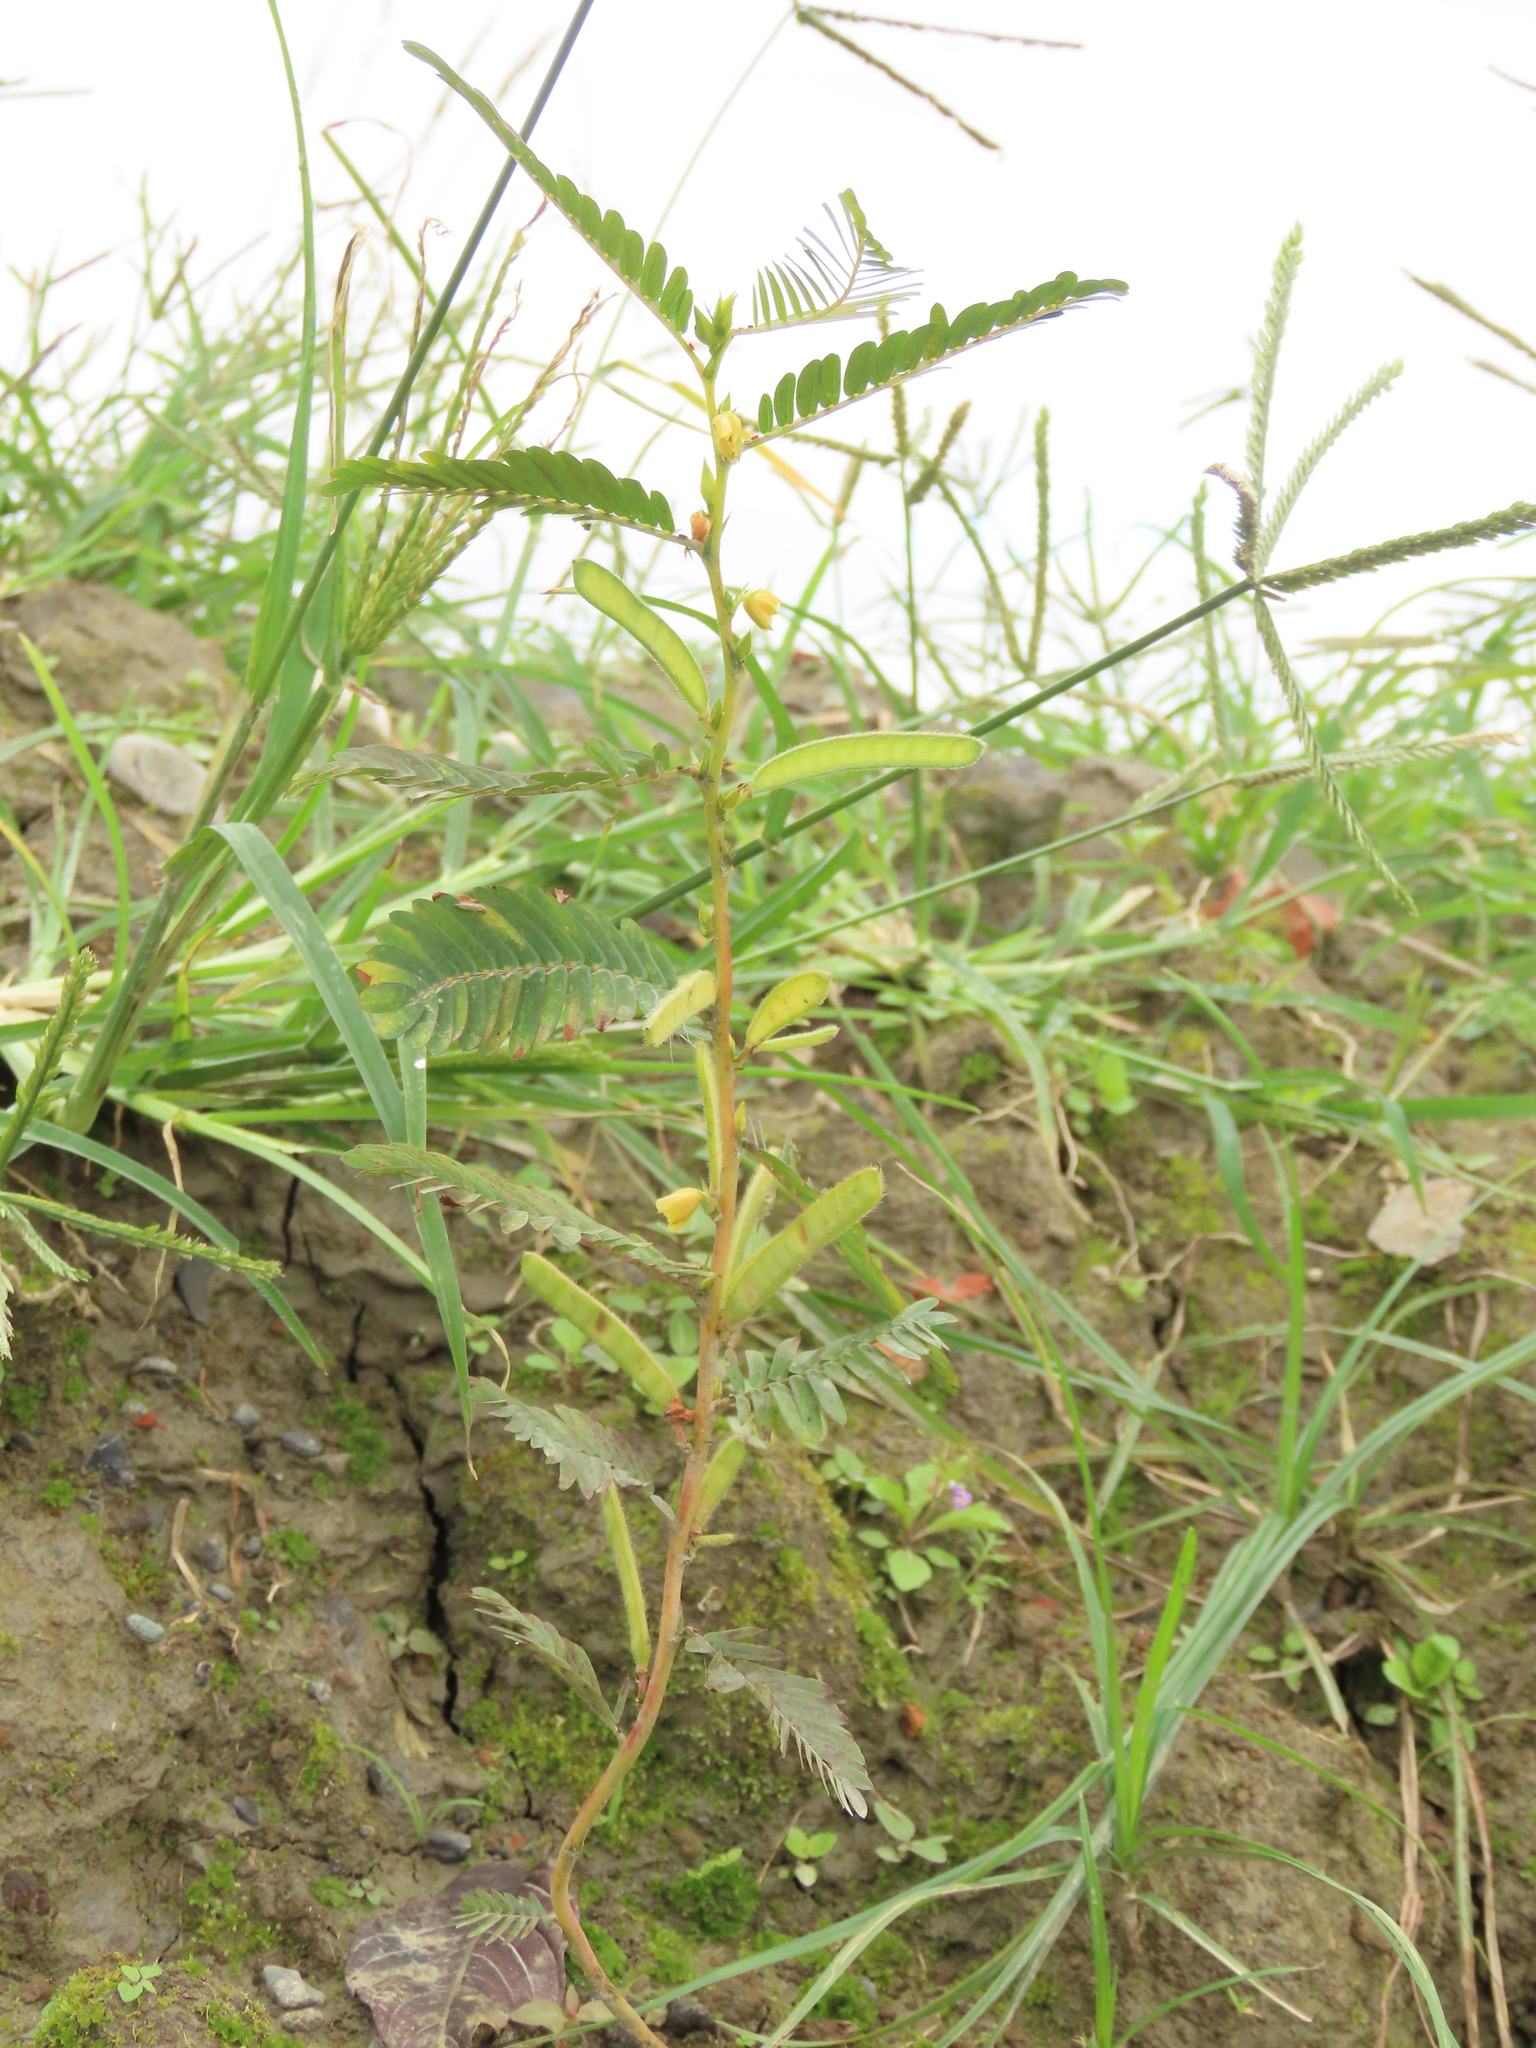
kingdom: Plantae
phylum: Tracheophyta
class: Magnoliopsida
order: Fabales
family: Fabaceae
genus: Chamaecrista
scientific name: Chamaecrista mimosoides
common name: Fish-bone cassia
